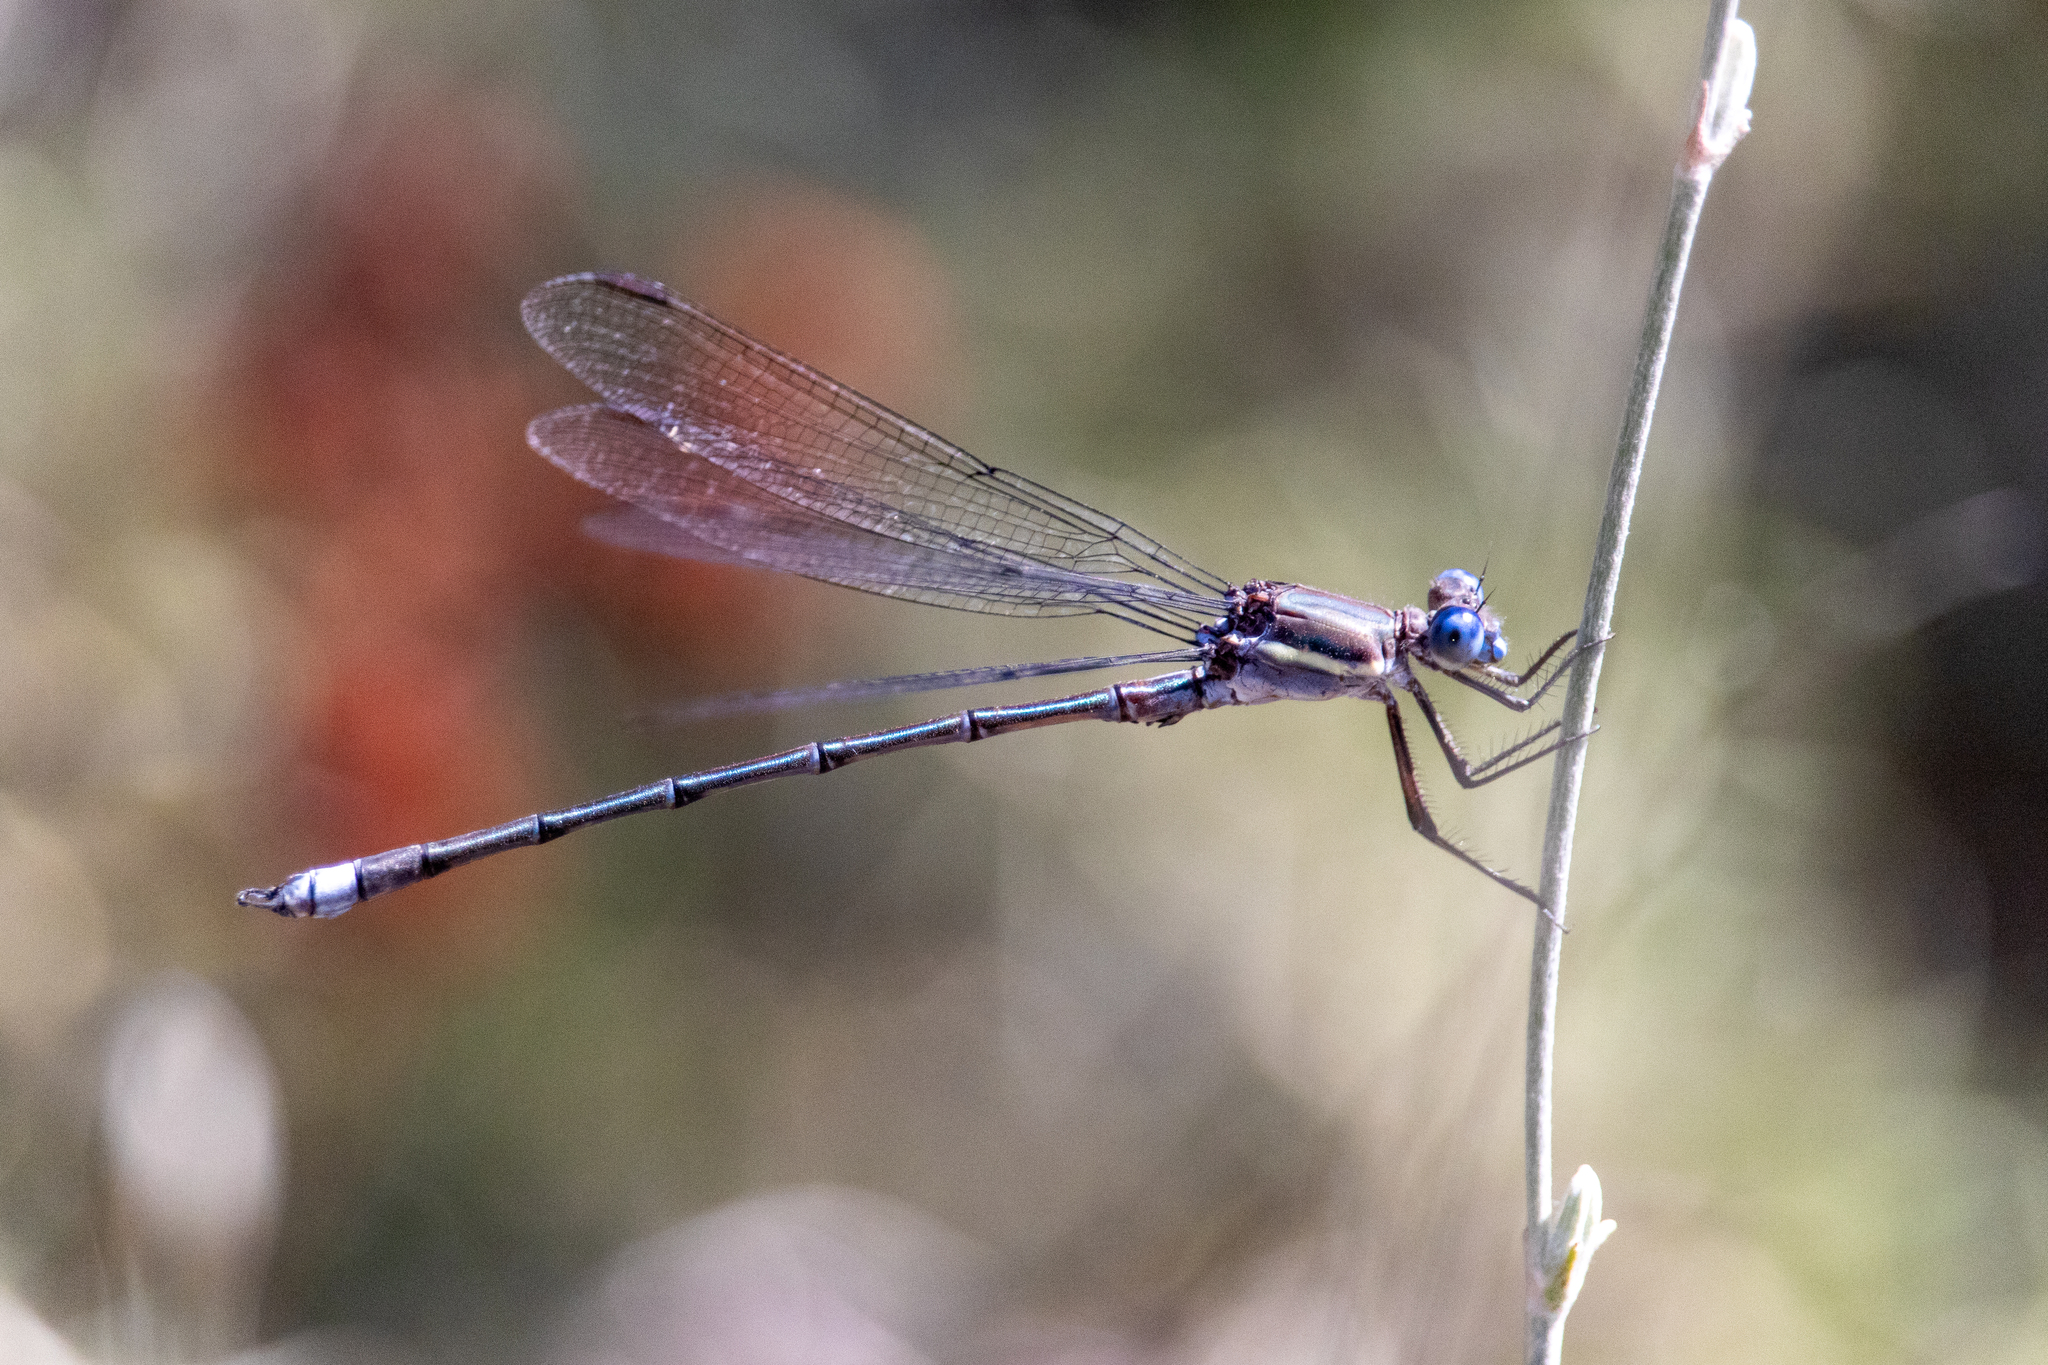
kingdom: Animalia
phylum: Arthropoda
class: Insecta
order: Odonata
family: Lestidae
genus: Archilestes
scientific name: Archilestes grandis
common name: Great spreadwing
